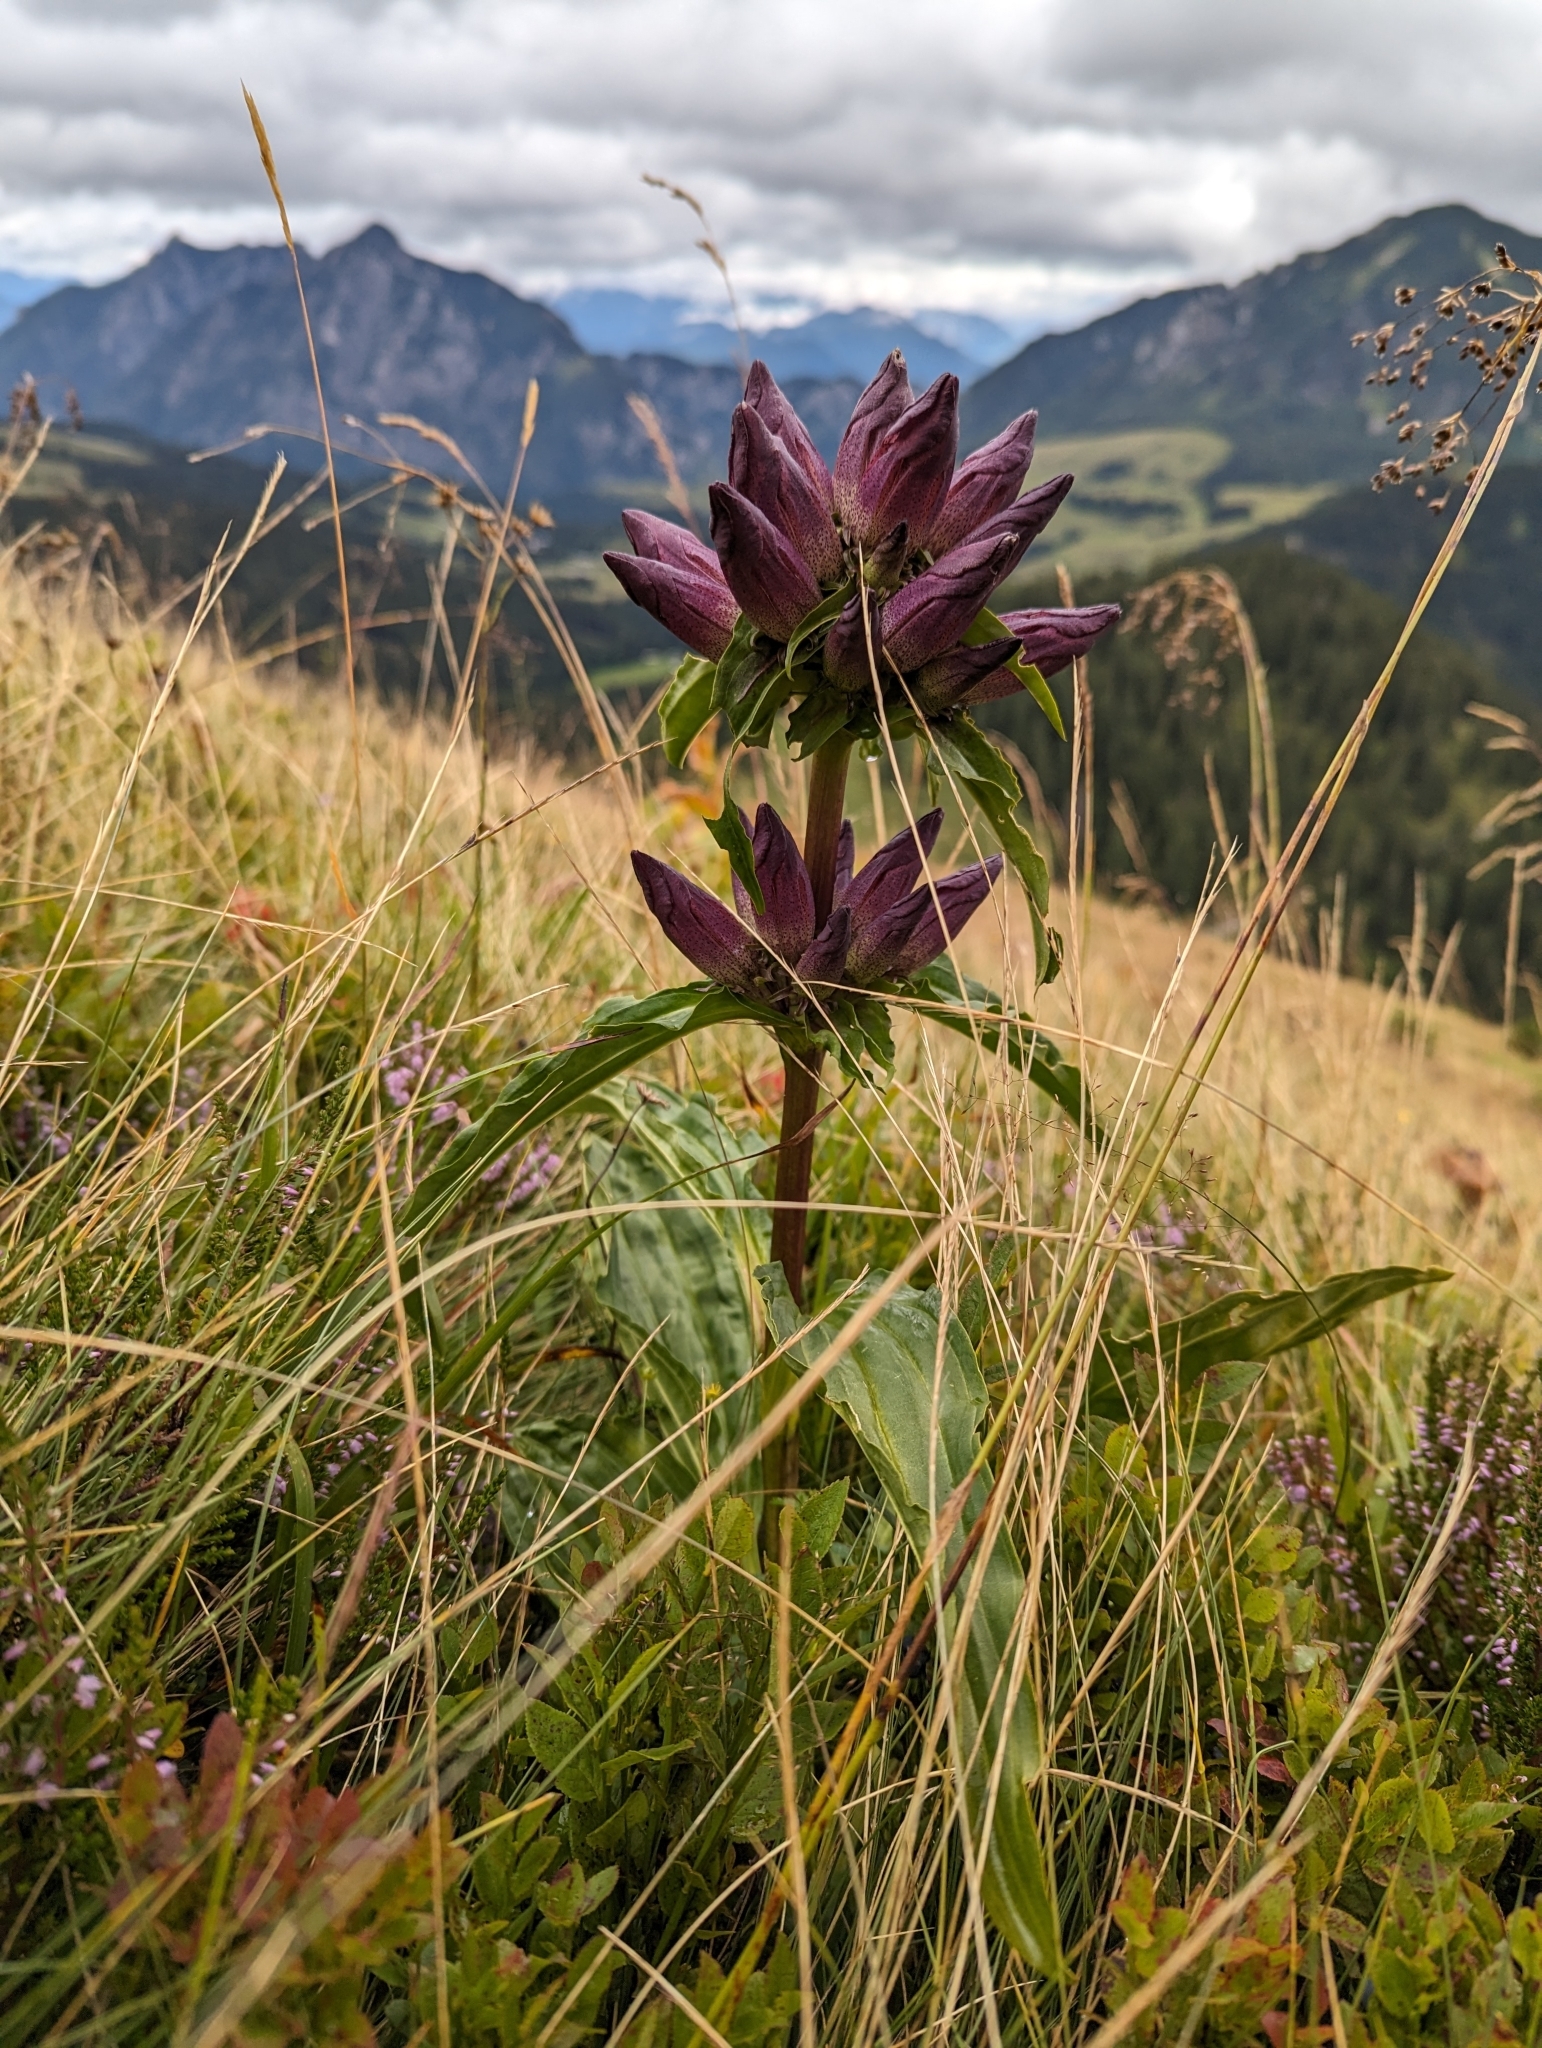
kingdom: Plantae
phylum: Tracheophyta
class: Magnoliopsida
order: Gentianales
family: Gentianaceae
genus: Gentiana
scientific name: Gentiana pannonica
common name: Hungarian gentian
